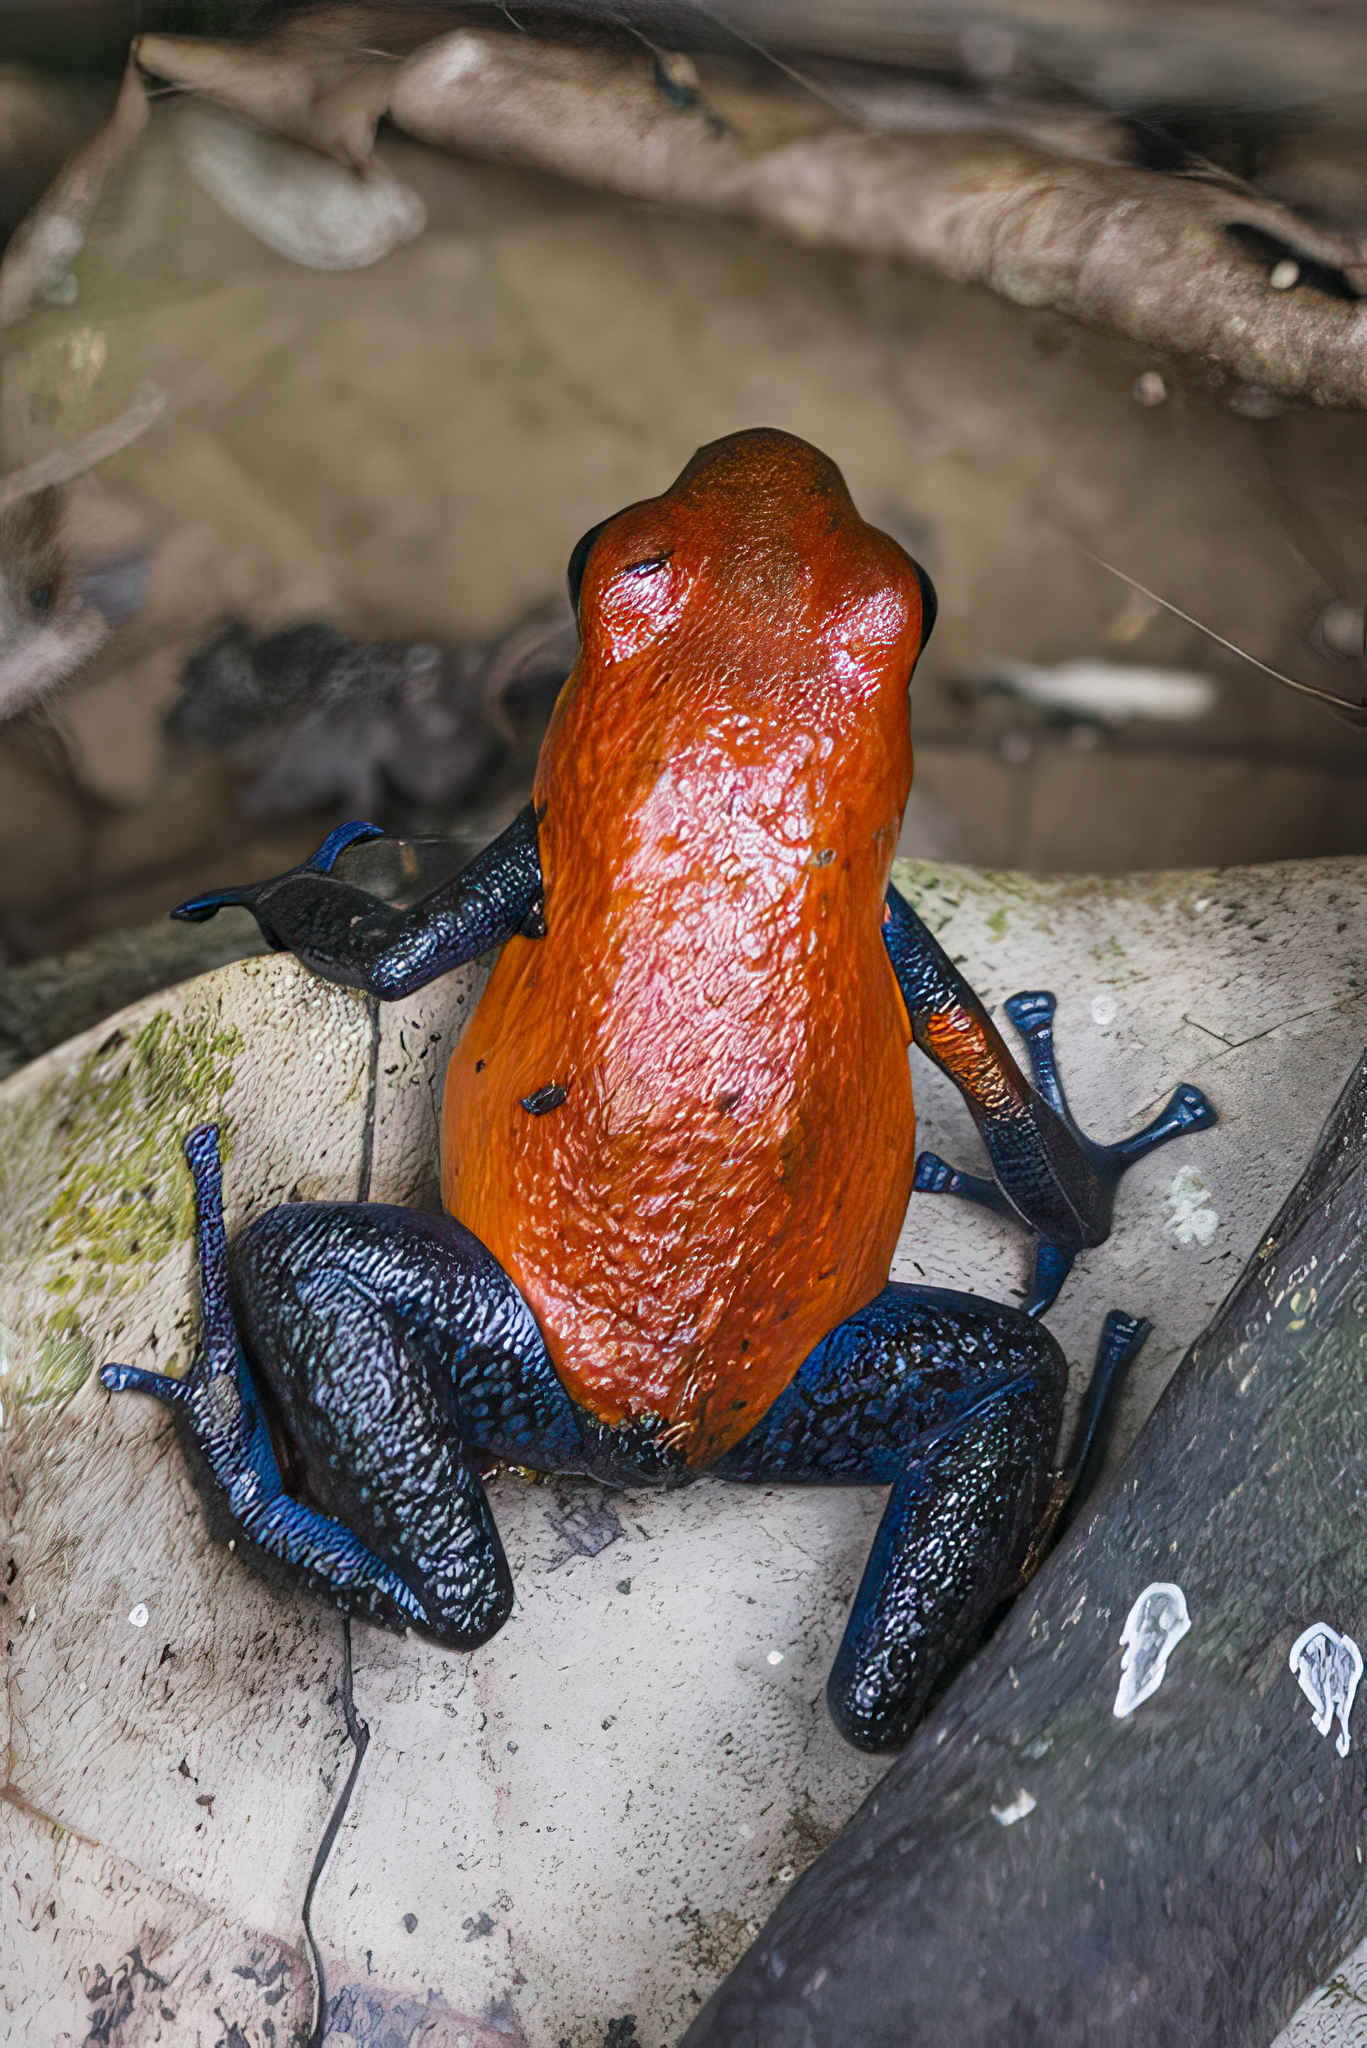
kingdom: Animalia
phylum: Chordata
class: Amphibia
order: Anura
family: Dendrobatidae
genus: Oophaga
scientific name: Oophaga pumilio
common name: Flaming poison frog
